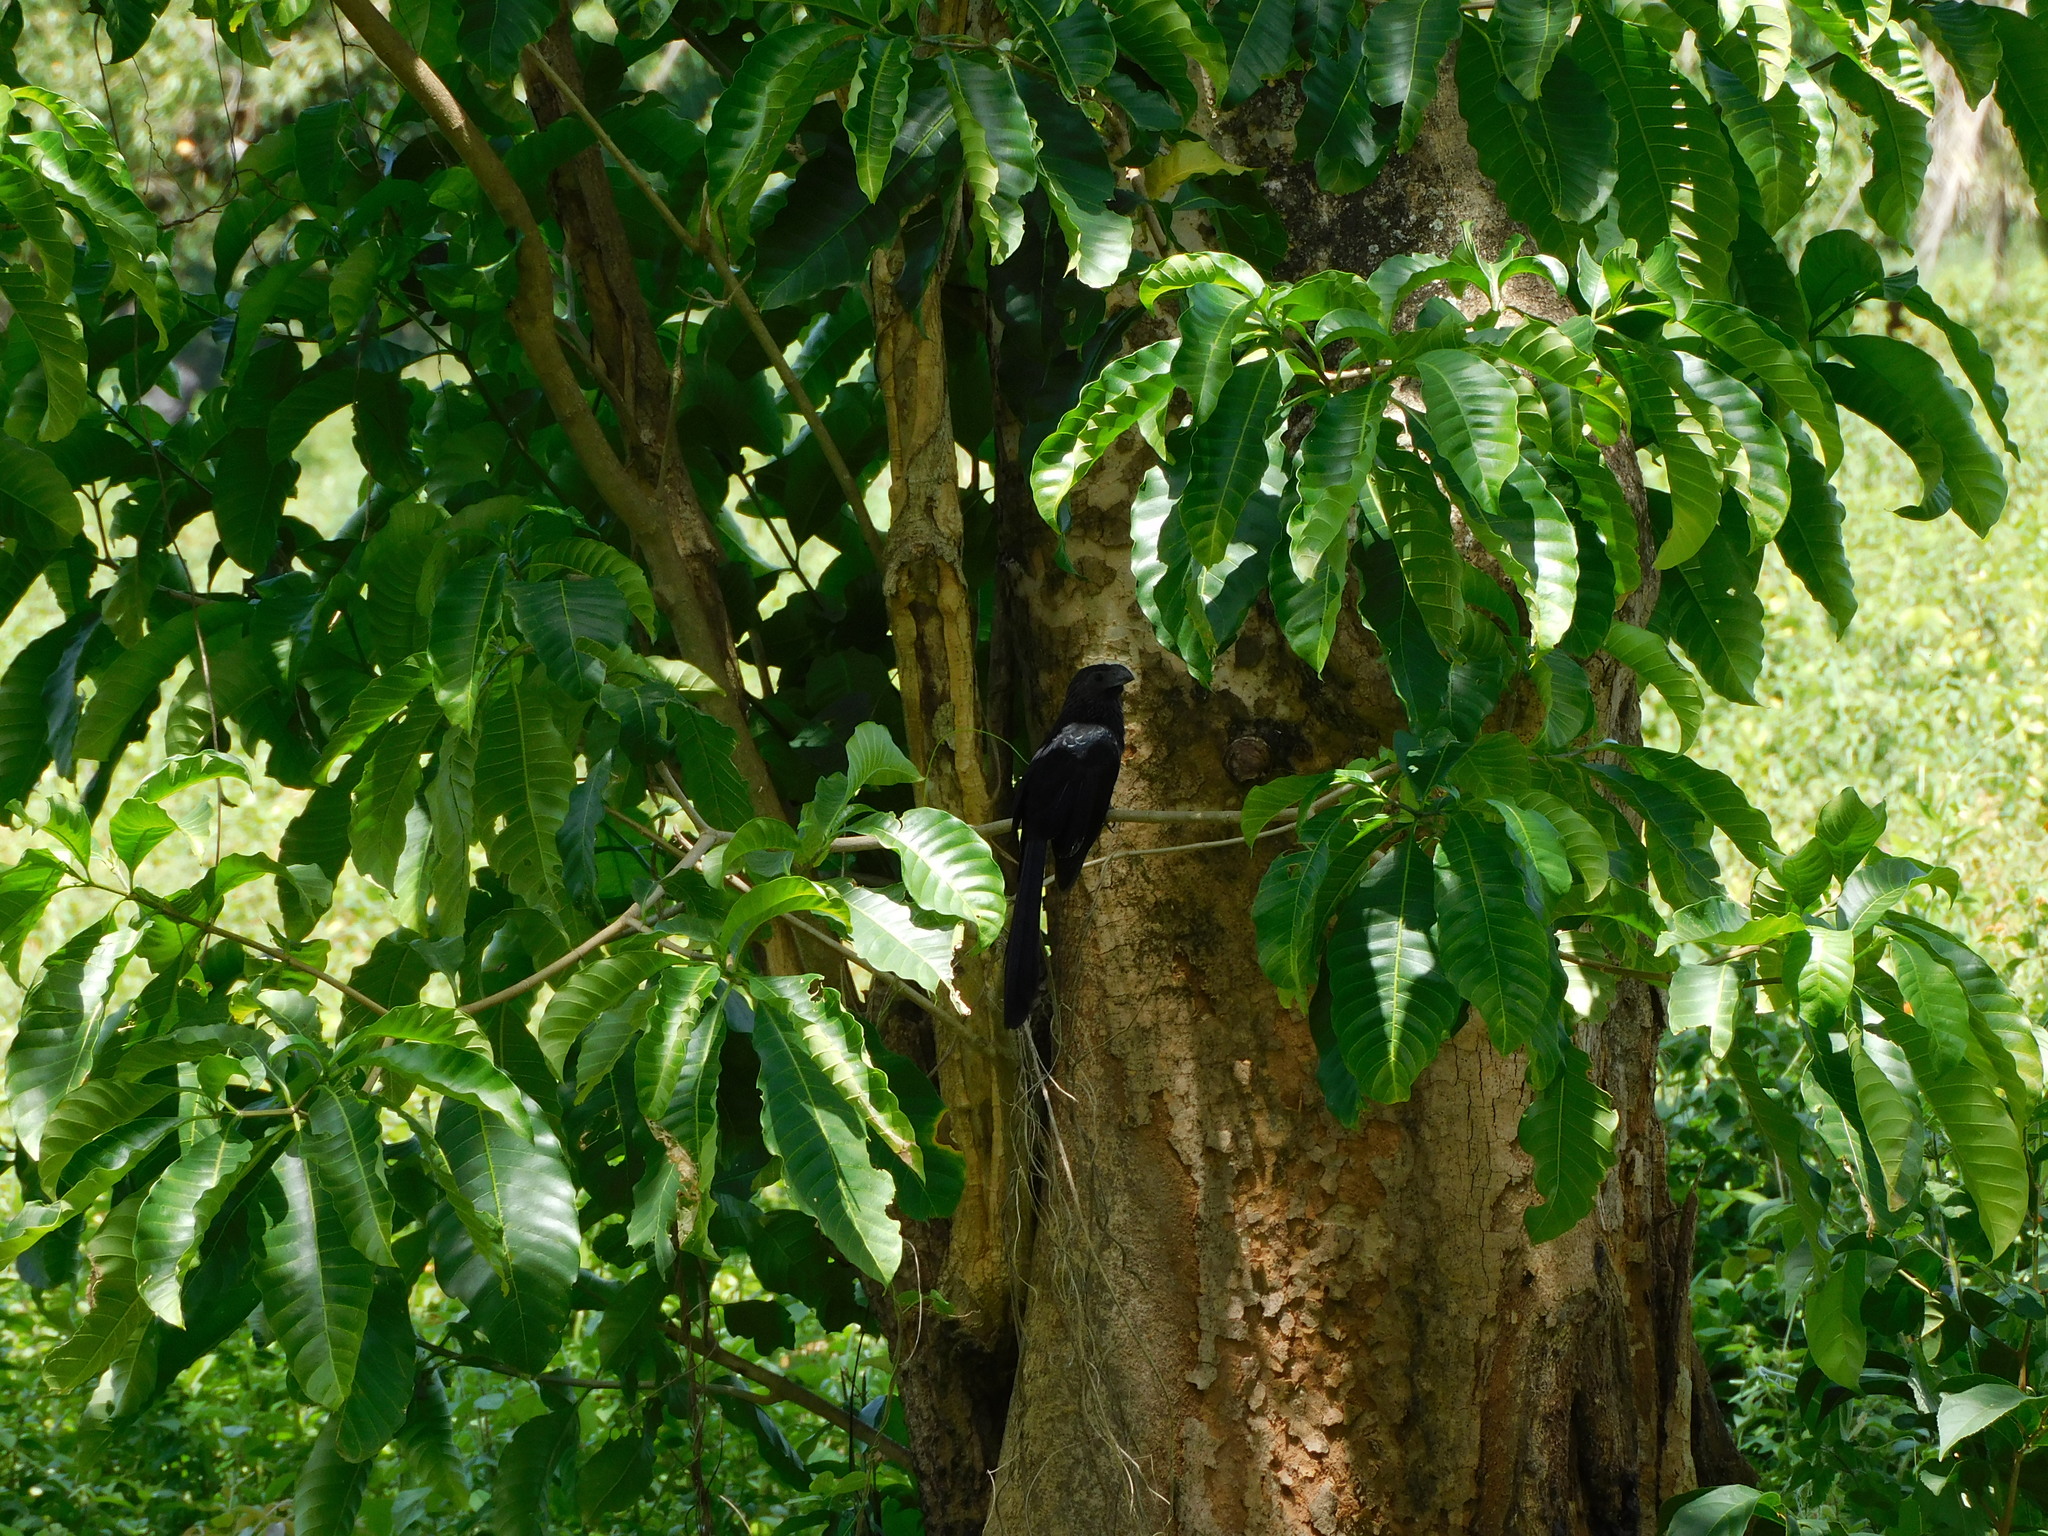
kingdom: Animalia
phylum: Chordata
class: Aves
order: Cuculiformes
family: Cuculidae
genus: Crotophaga
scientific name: Crotophaga sulcirostris
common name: Groove-billed ani
